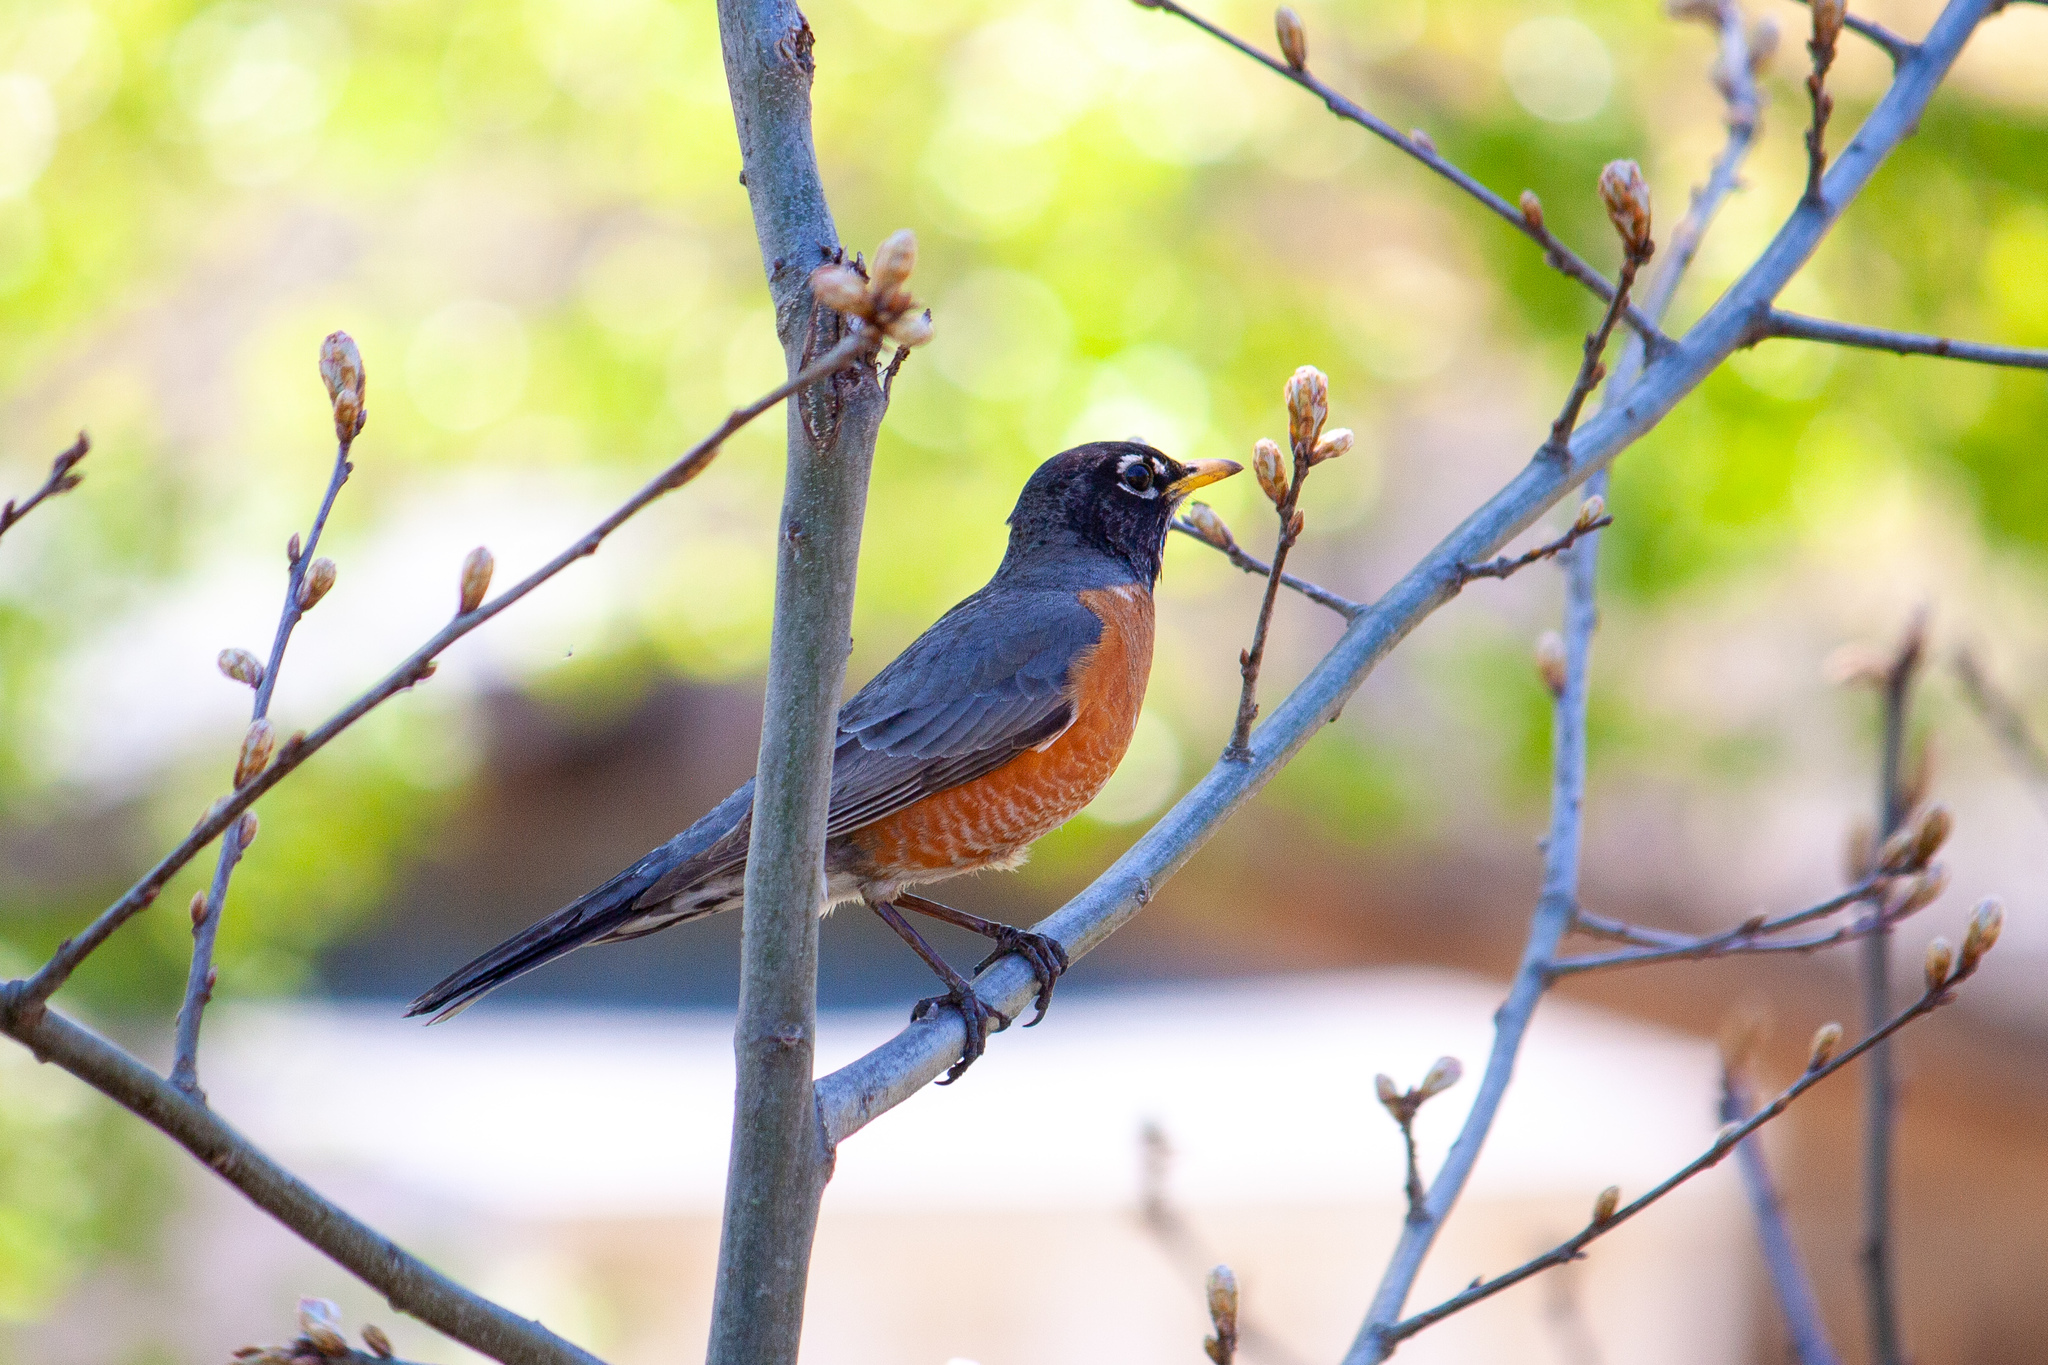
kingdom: Animalia
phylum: Chordata
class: Aves
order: Passeriformes
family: Turdidae
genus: Turdus
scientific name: Turdus migratorius
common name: American robin
